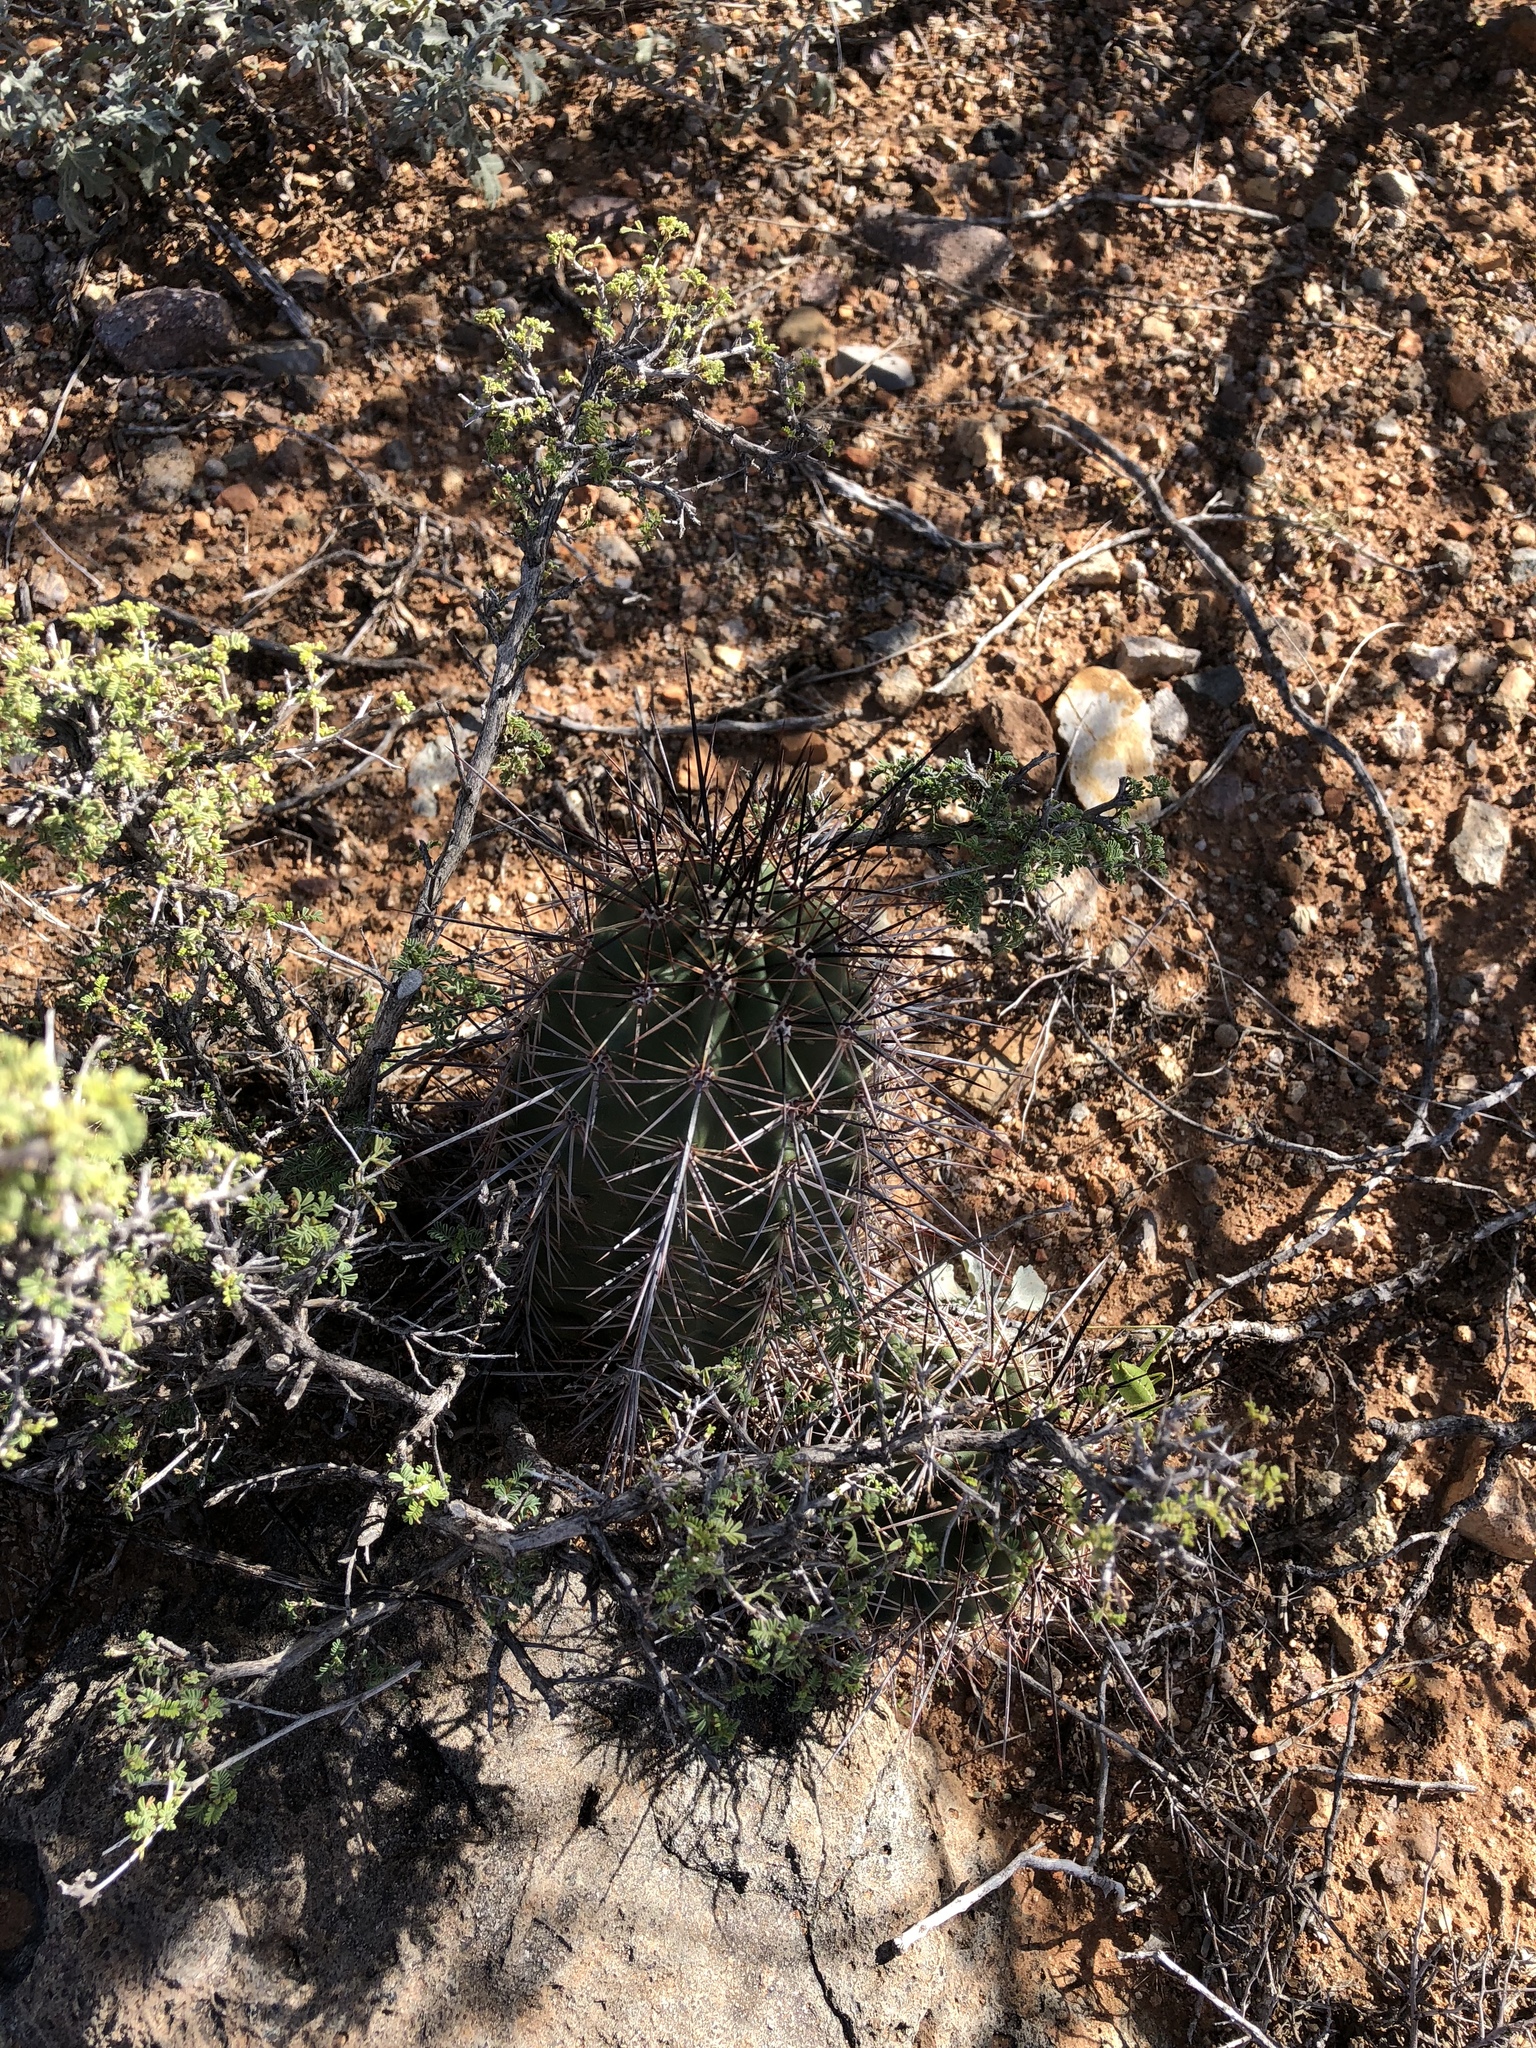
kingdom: Plantae
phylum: Tracheophyta
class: Magnoliopsida
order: Caryophyllales
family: Cactaceae
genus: Echinocereus
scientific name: Echinocereus coccineus
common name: Scarlet hedgehog cactus
